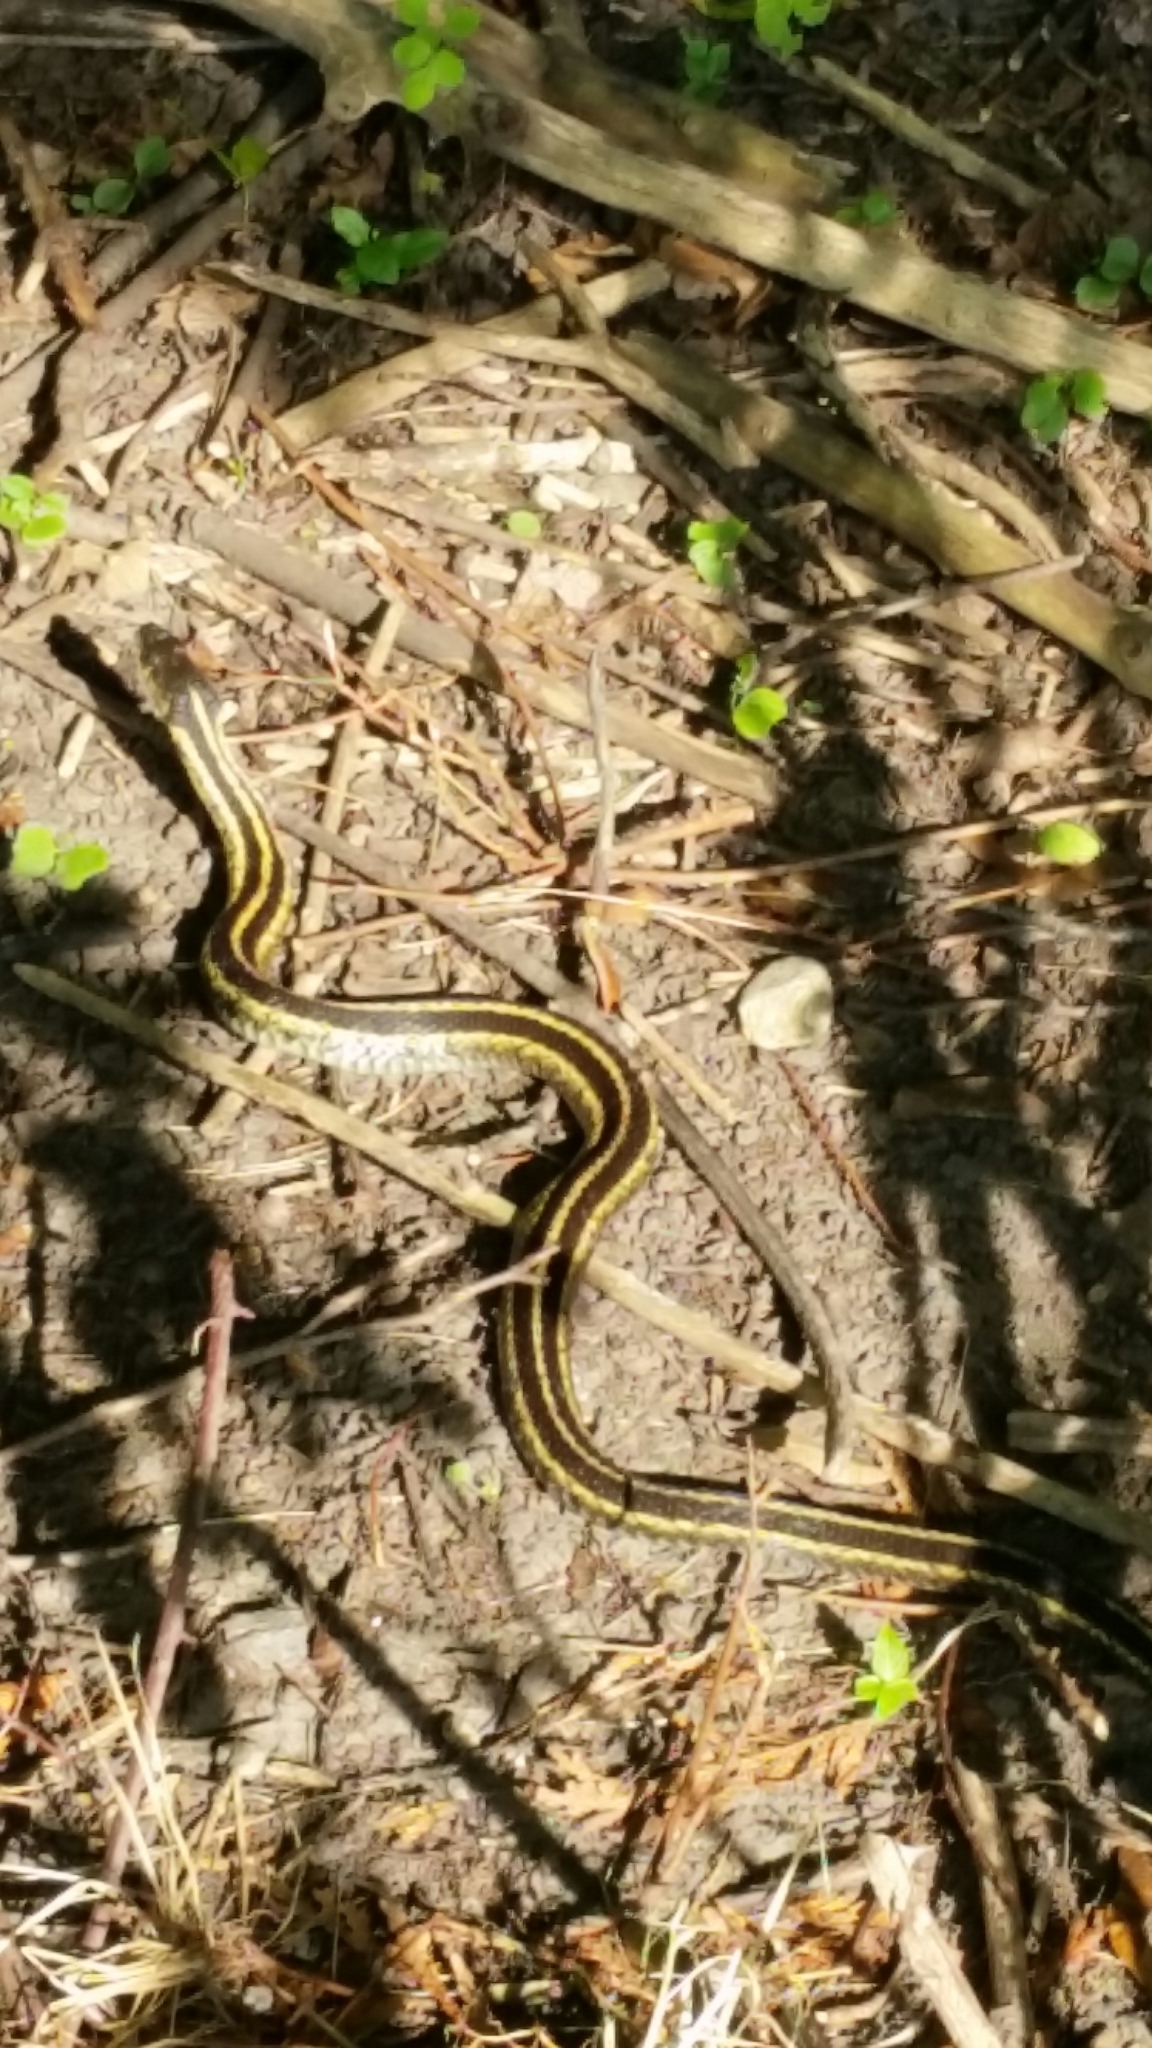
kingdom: Animalia
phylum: Chordata
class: Squamata
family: Colubridae
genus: Thamnophis
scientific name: Thamnophis sirtalis
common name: Common garter snake
